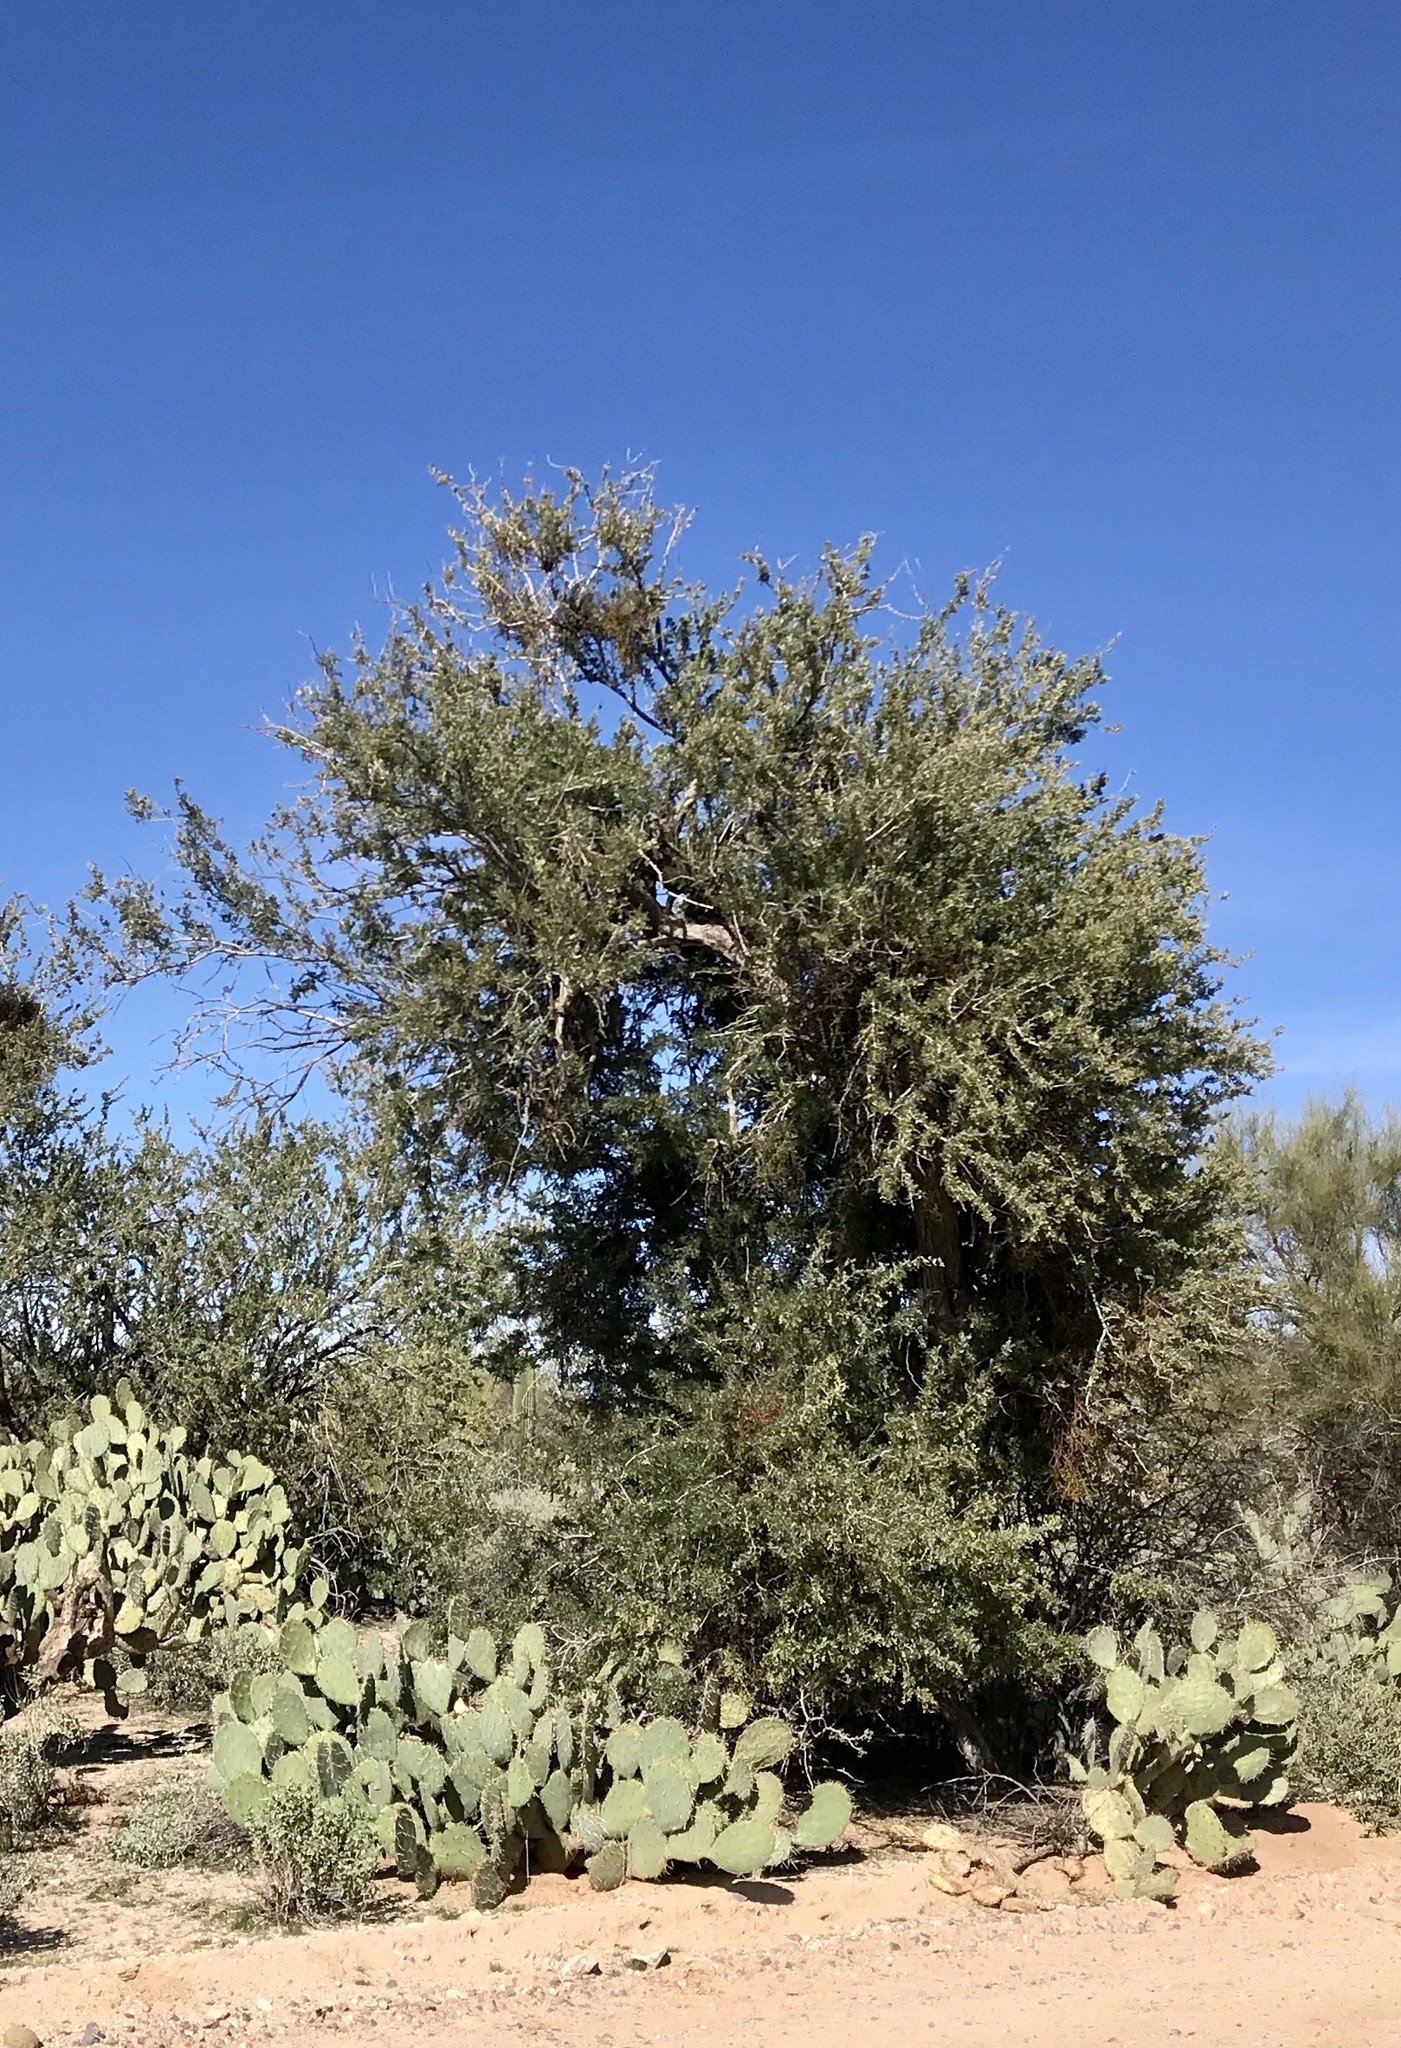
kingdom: Plantae
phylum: Tracheophyta
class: Magnoliopsida
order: Fabales
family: Fabaceae
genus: Olneya
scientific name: Olneya tesota
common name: Desert ironwood
